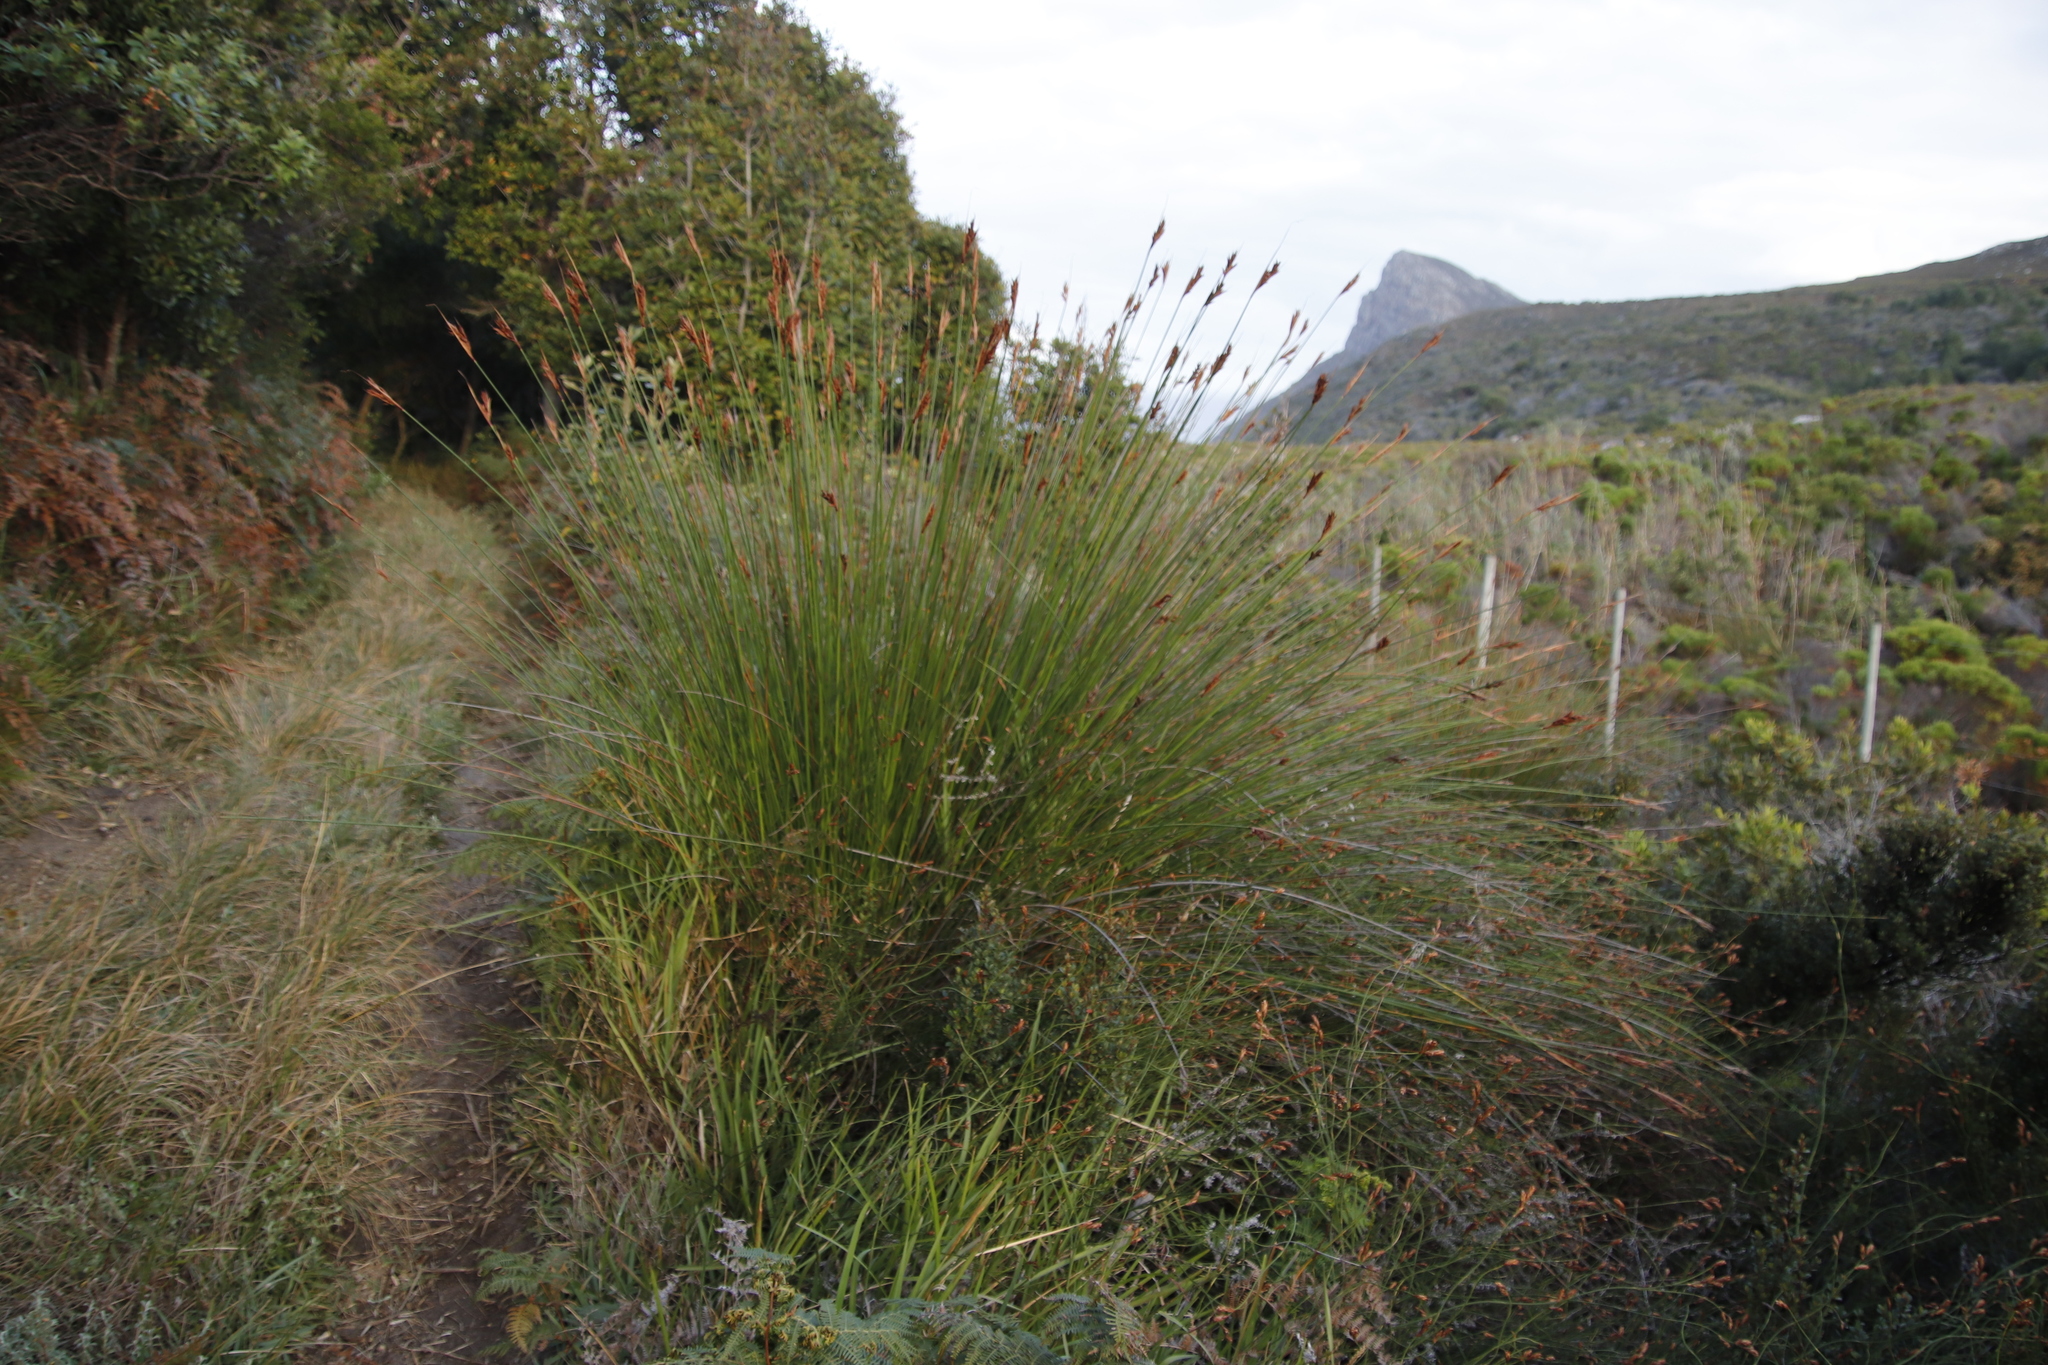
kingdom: Plantae
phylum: Tracheophyta
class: Liliopsida
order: Poales
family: Cyperaceae
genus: Neesenbeckia
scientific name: Neesenbeckia punctoria
